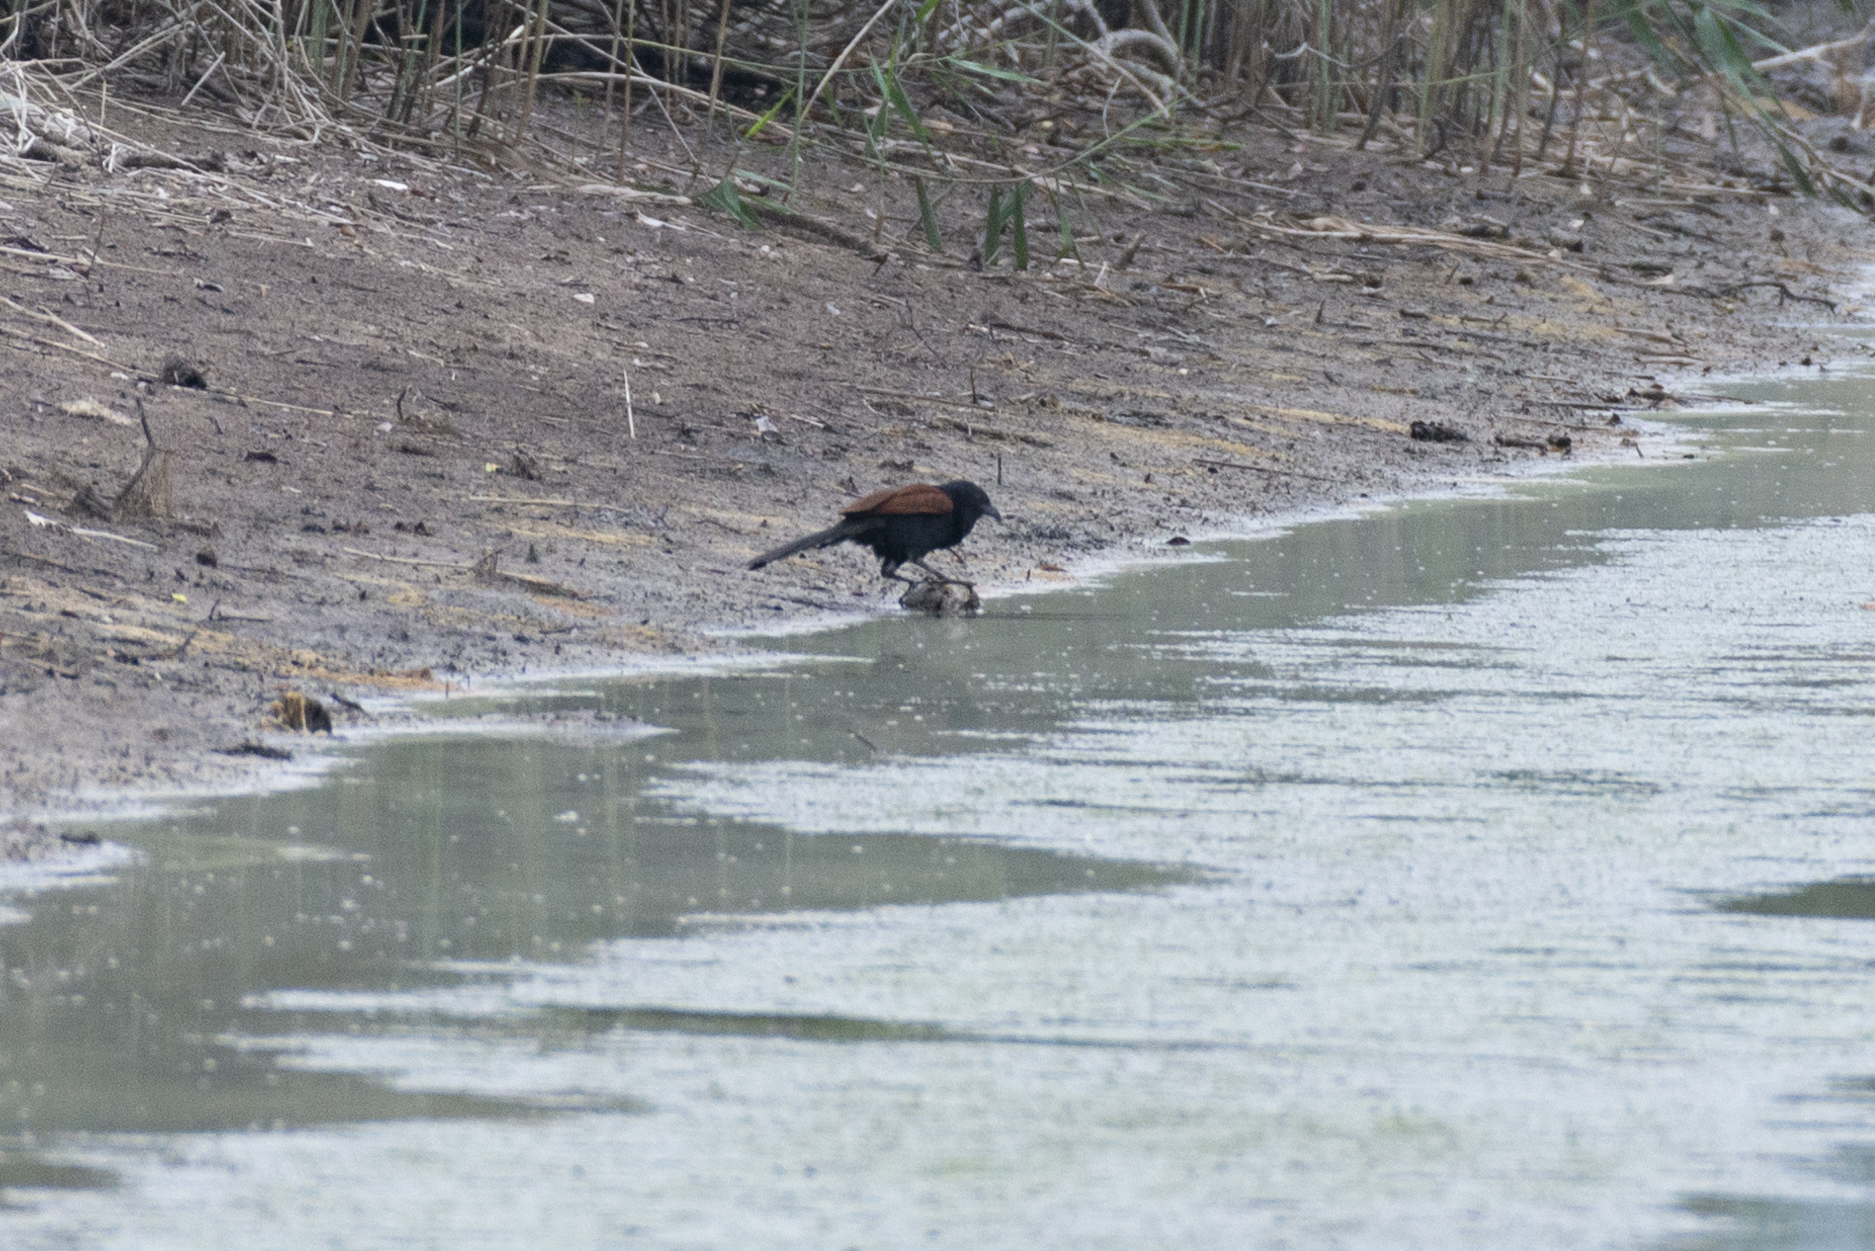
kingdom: Animalia
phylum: Chordata
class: Aves
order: Cuculiformes
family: Cuculidae
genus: Centropus
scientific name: Centropus sinensis
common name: Greater coucal
